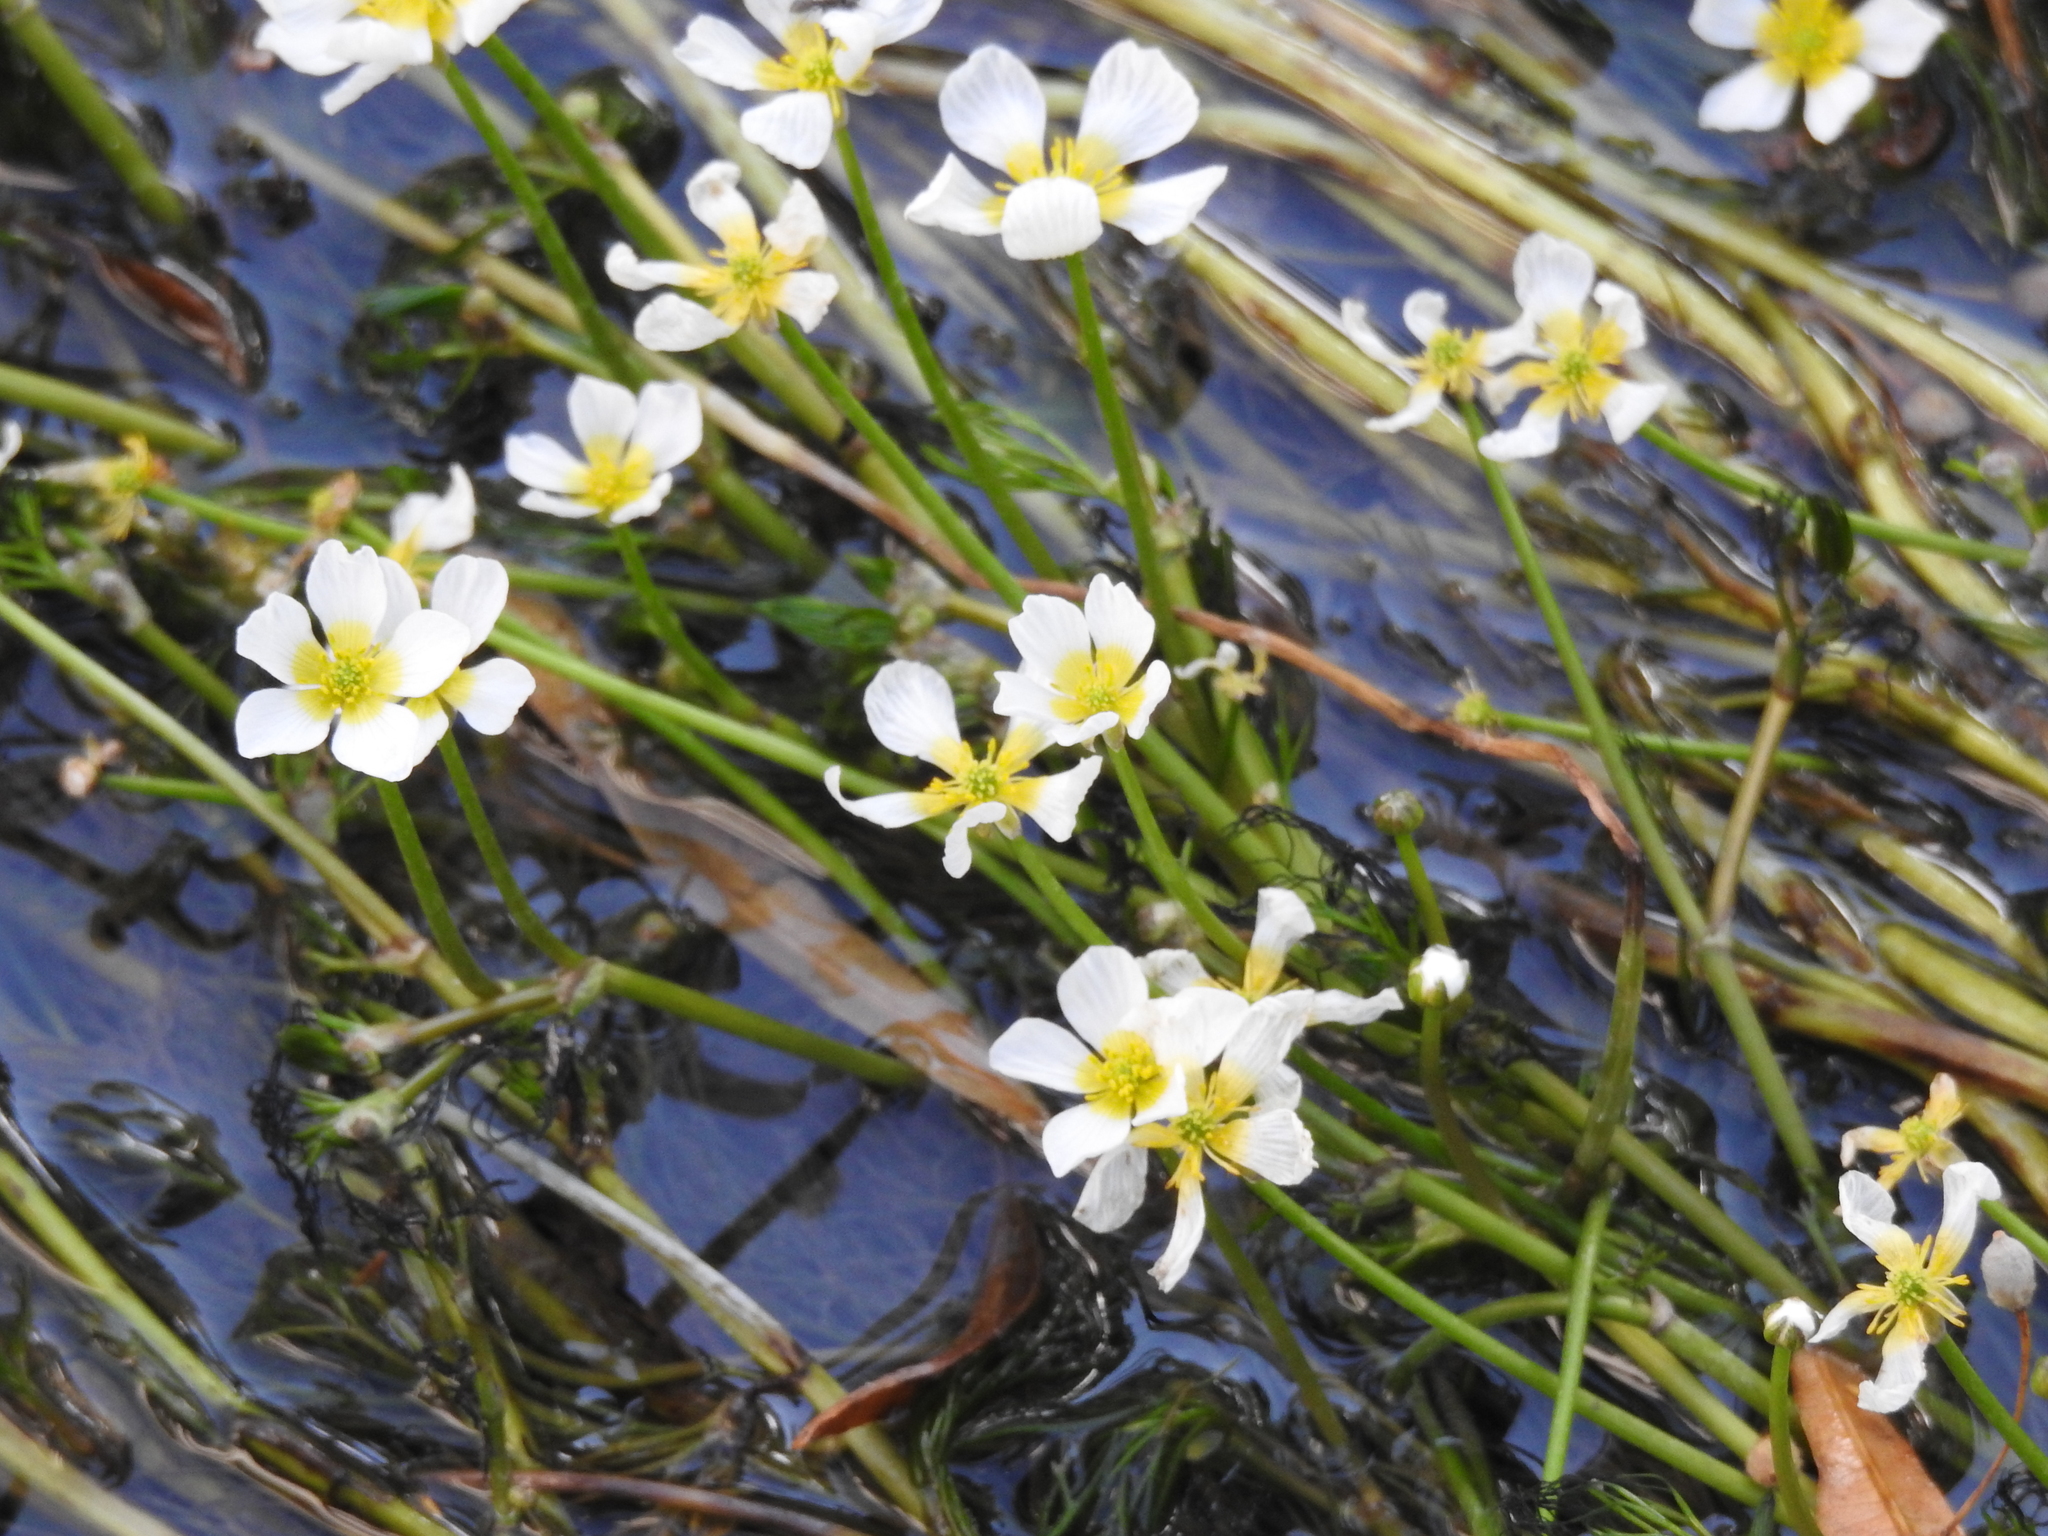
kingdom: Plantae
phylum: Tracheophyta
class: Magnoliopsida
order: Ranunculales
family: Ranunculaceae
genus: Ranunculus
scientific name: Ranunculus fluitans
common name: River water-crowfoot
